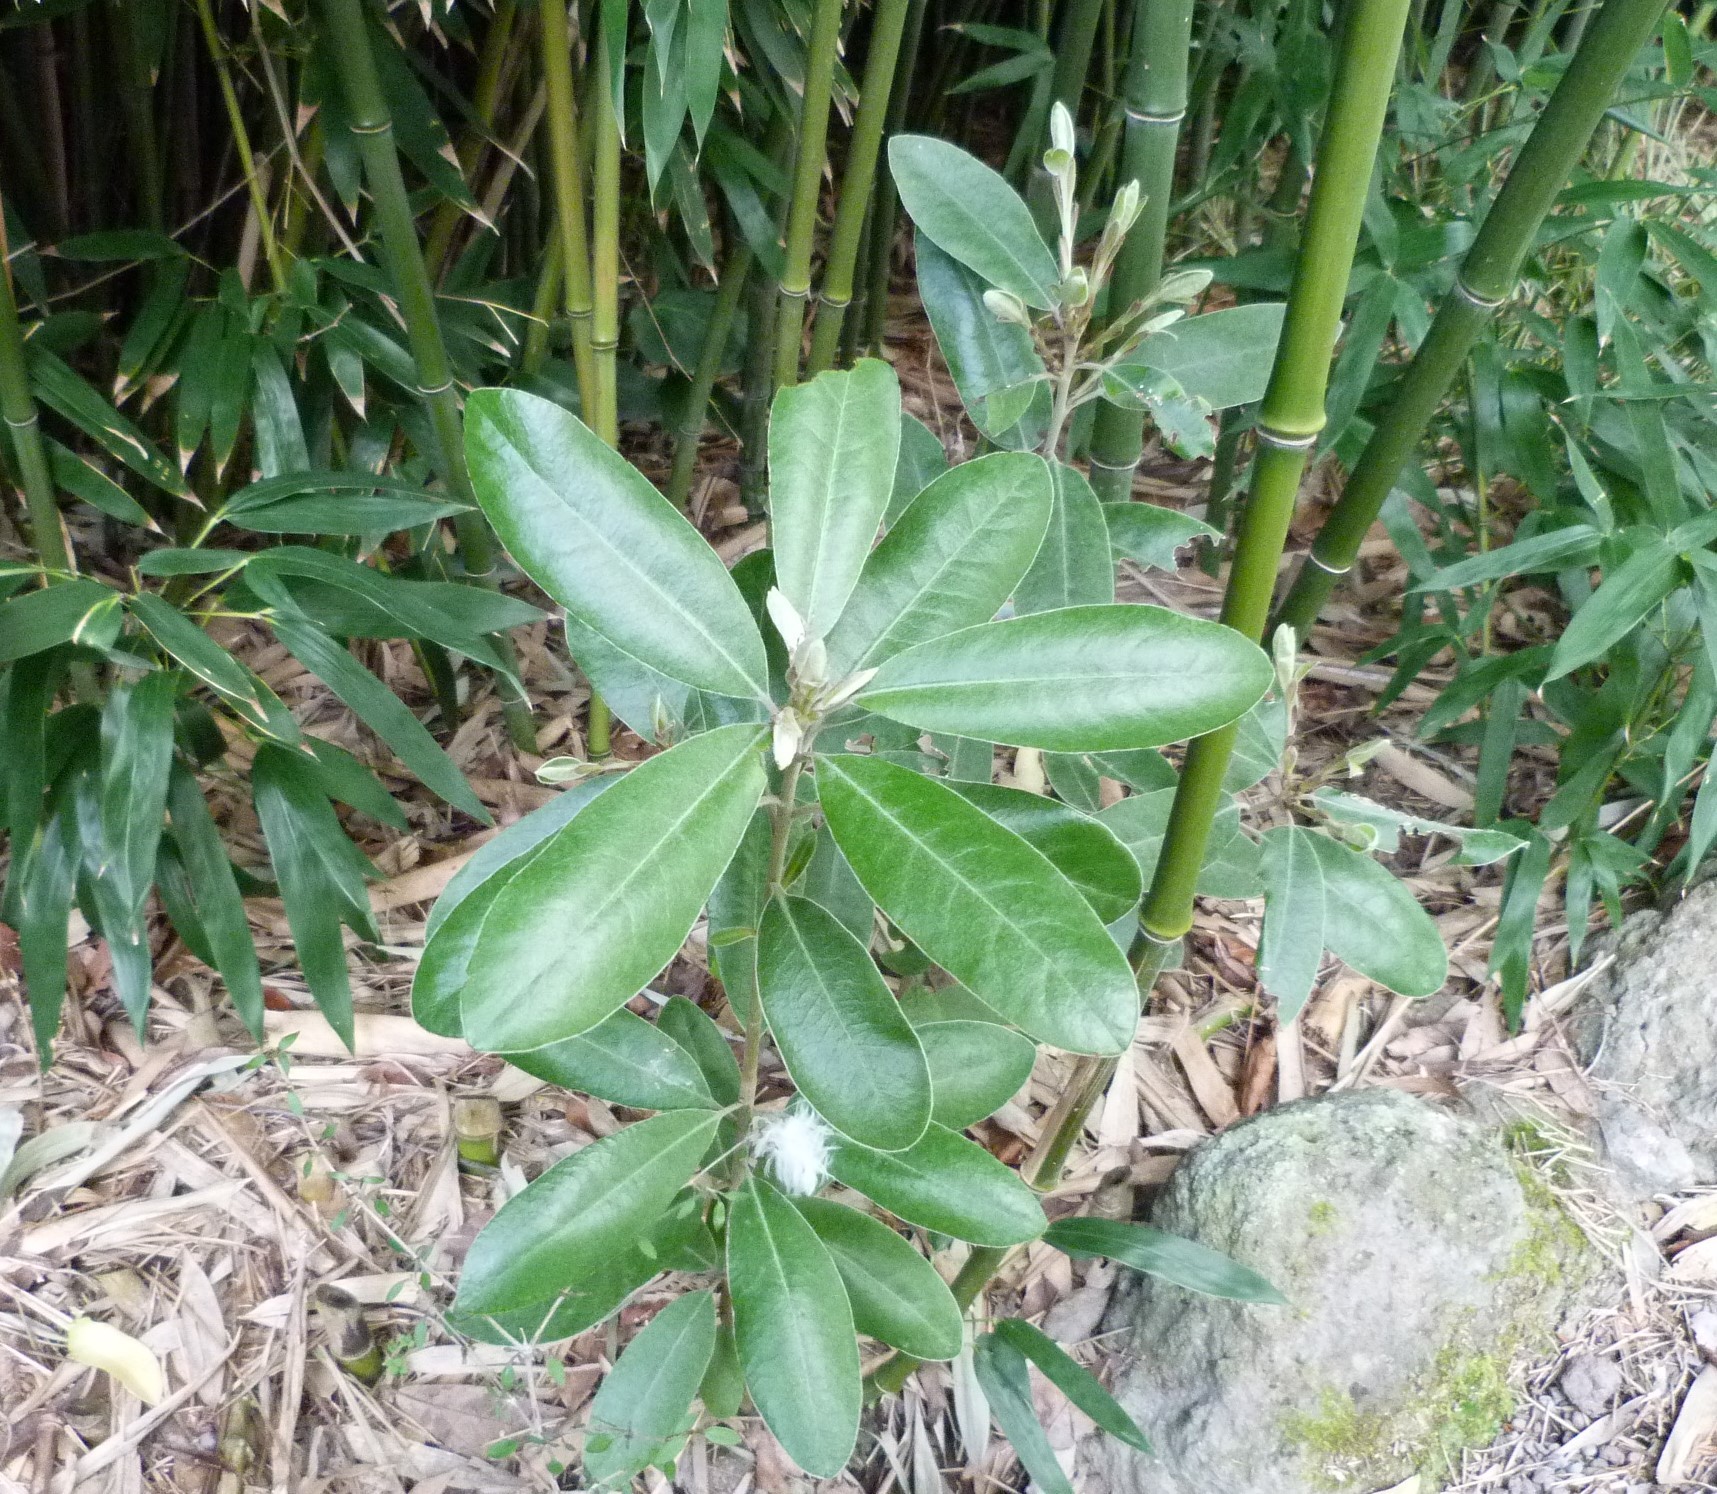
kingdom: Plantae
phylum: Tracheophyta
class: Magnoliopsida
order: Apiales
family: Pittosporaceae
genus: Pittosporum
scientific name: Pittosporum ralphii
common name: Ralph's desertwillow
